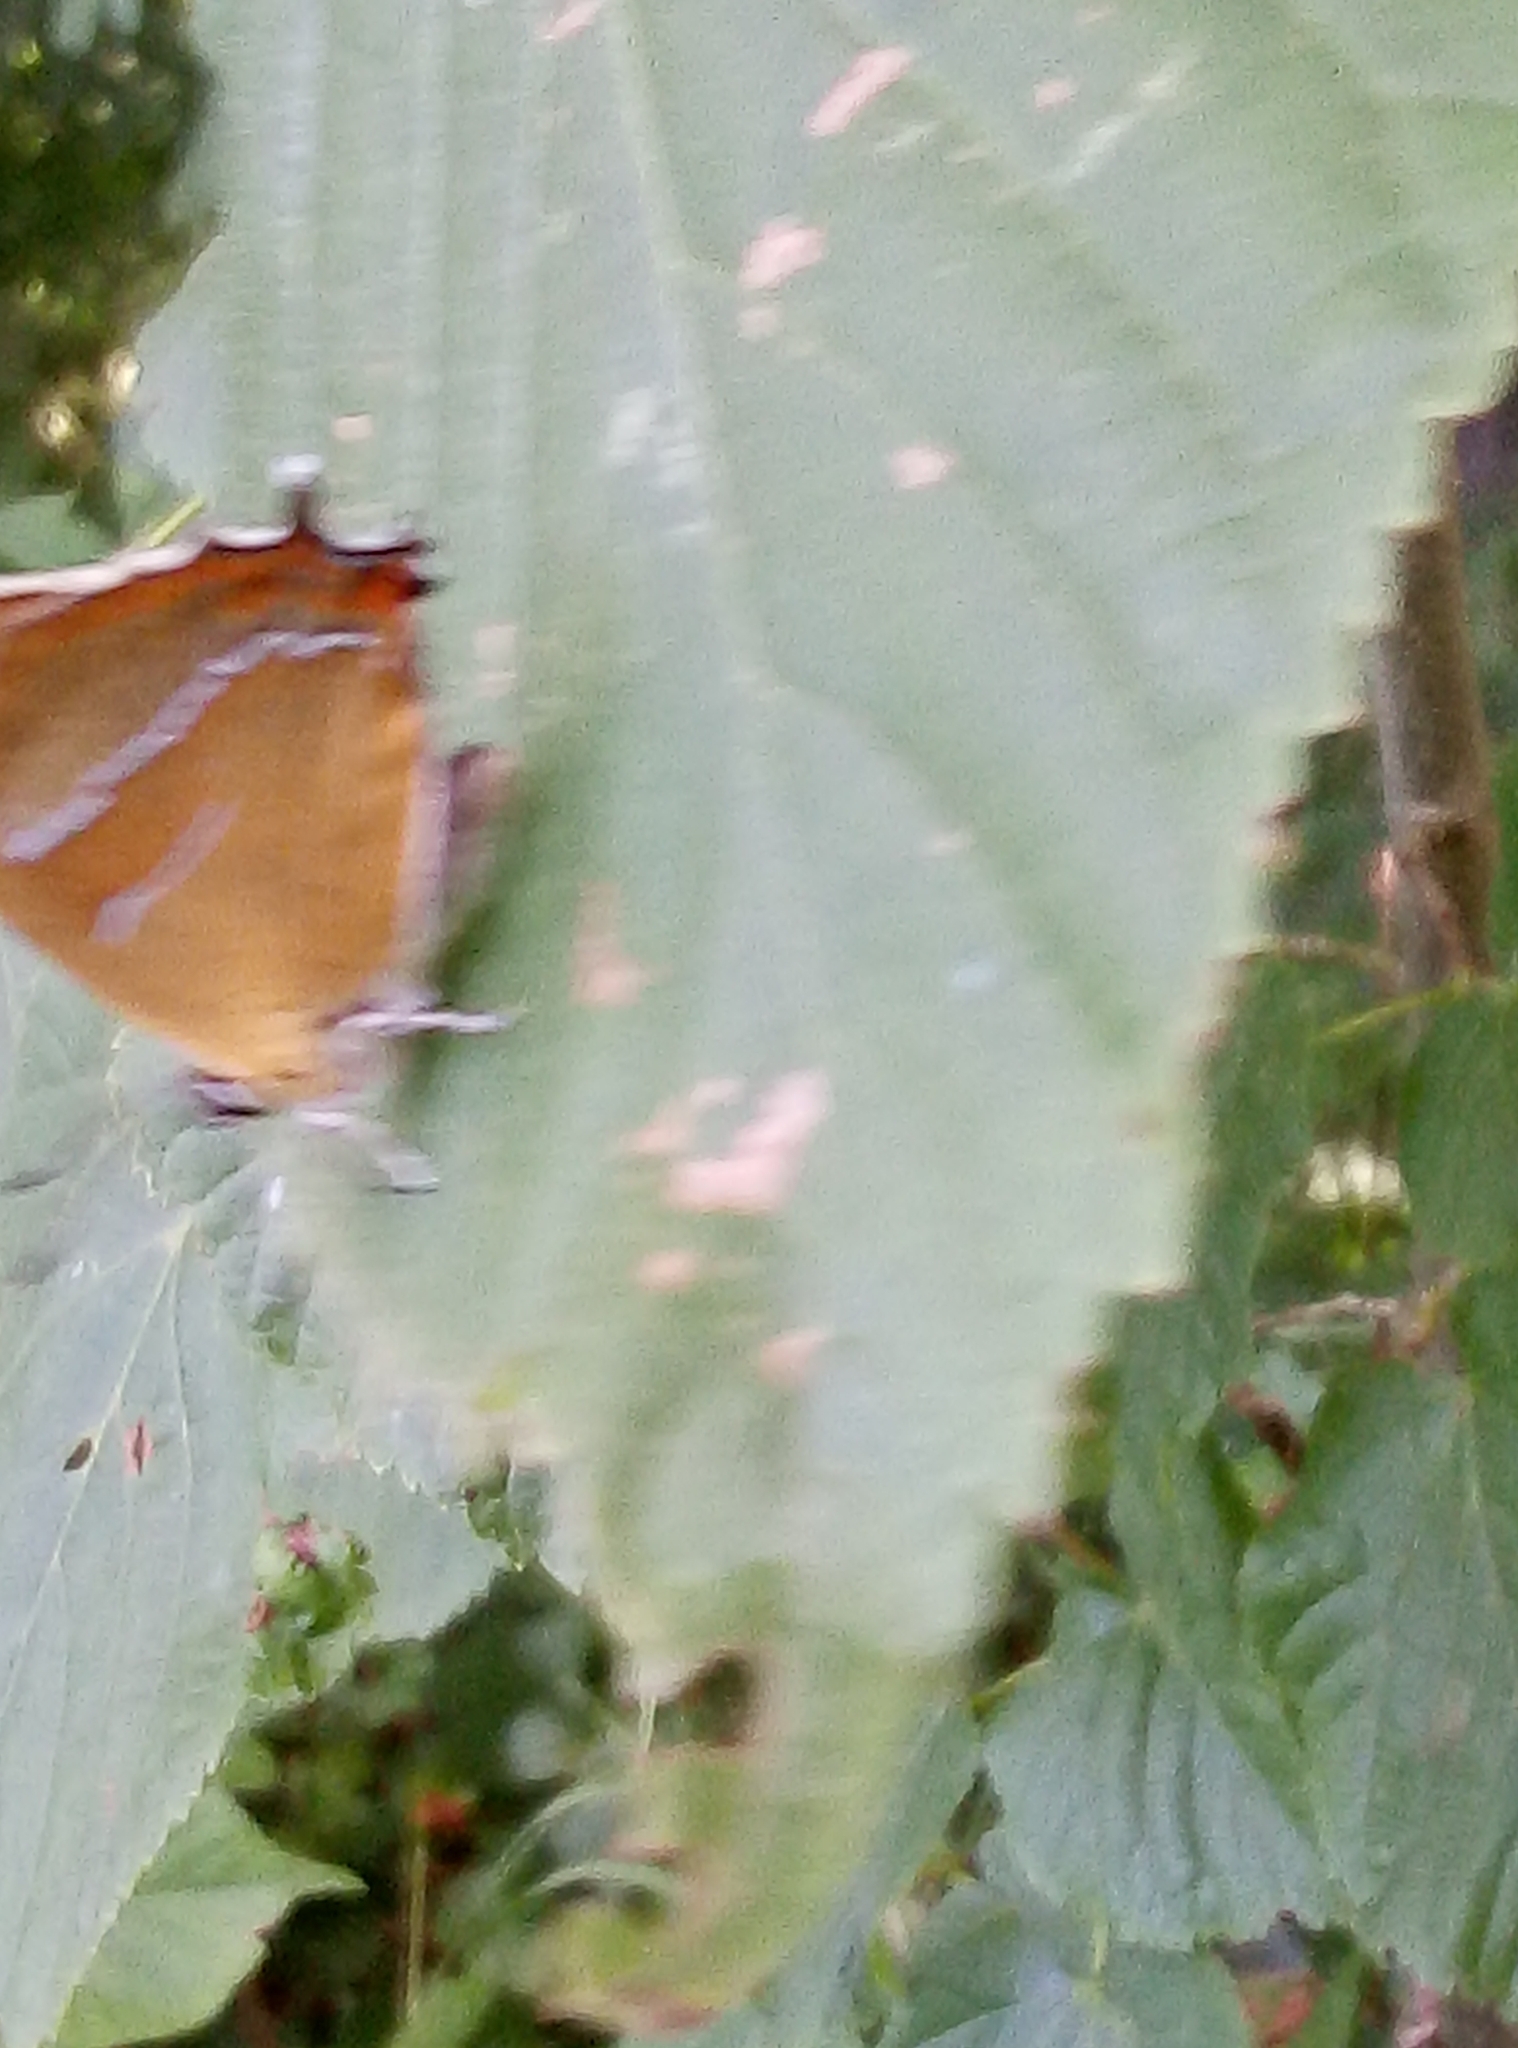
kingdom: Animalia
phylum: Arthropoda
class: Insecta
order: Lepidoptera
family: Lycaenidae
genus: Thecla
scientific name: Thecla betulae
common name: Brown hairstreak
